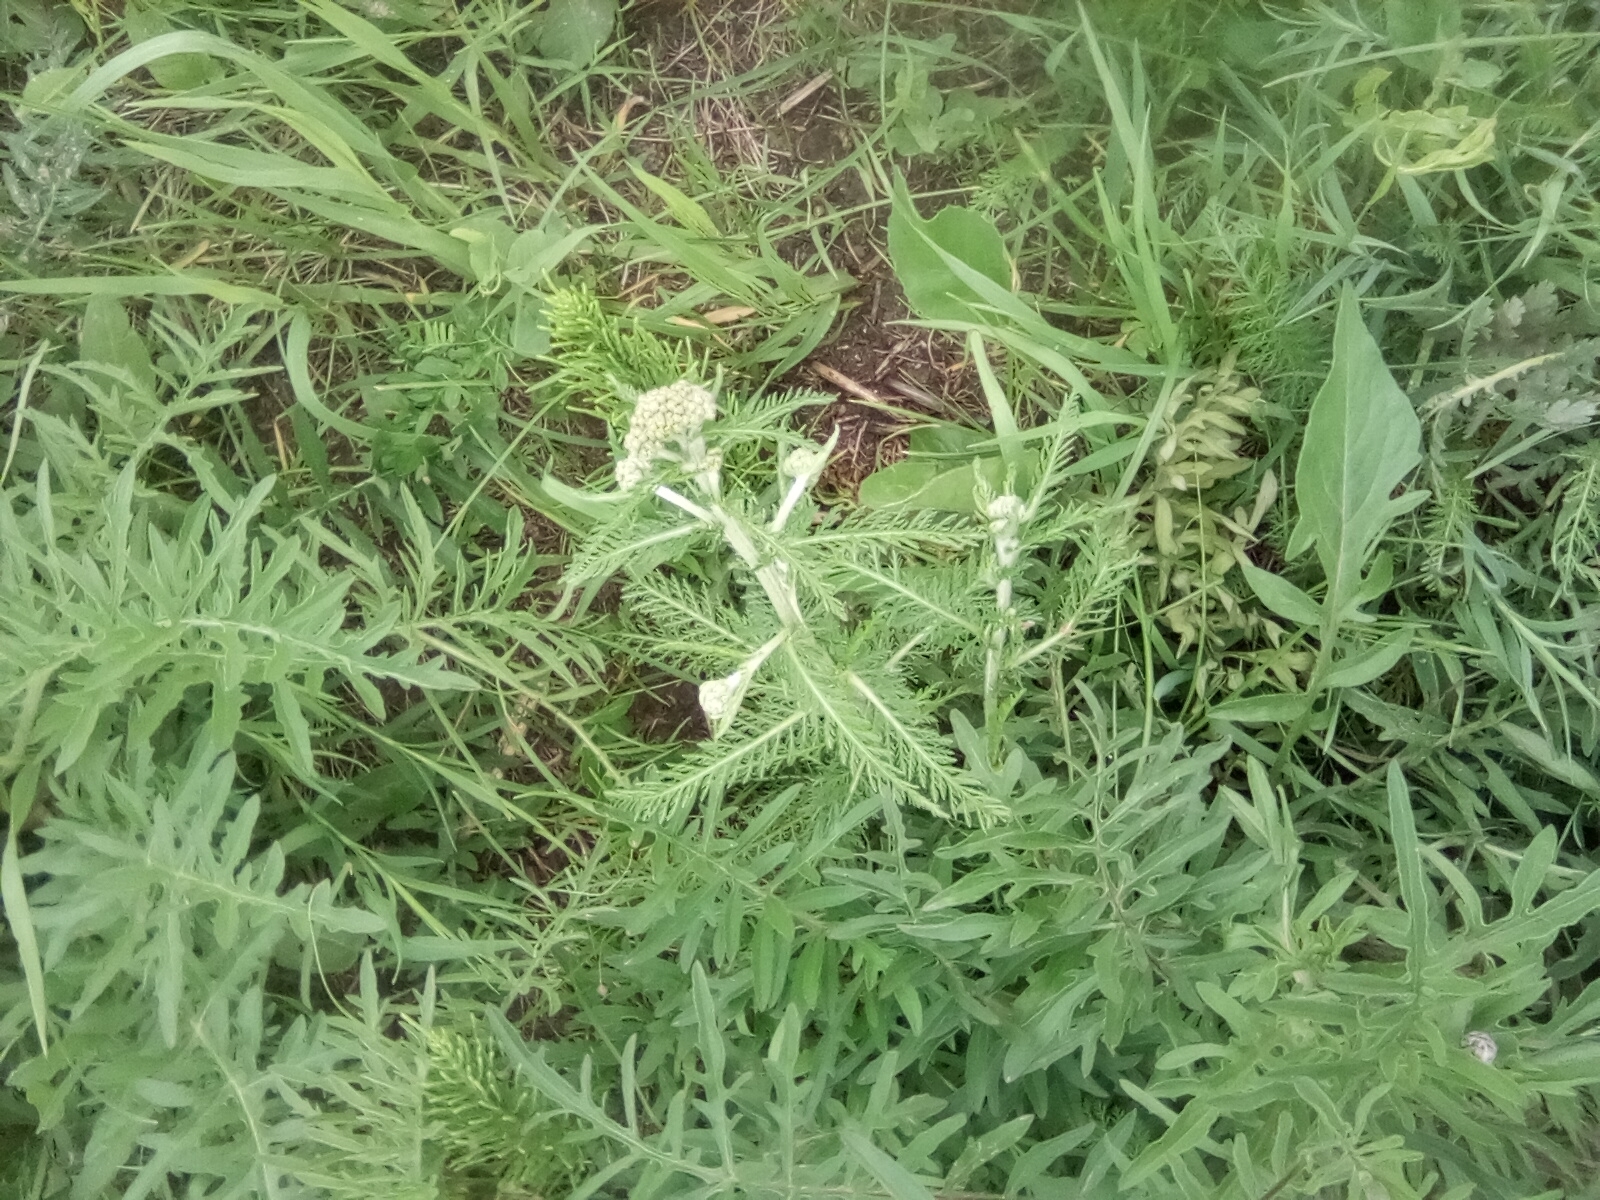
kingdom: Plantae
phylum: Tracheophyta
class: Magnoliopsida
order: Asterales
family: Asteraceae
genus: Achillea
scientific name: Achillea millefolium
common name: Yarrow
